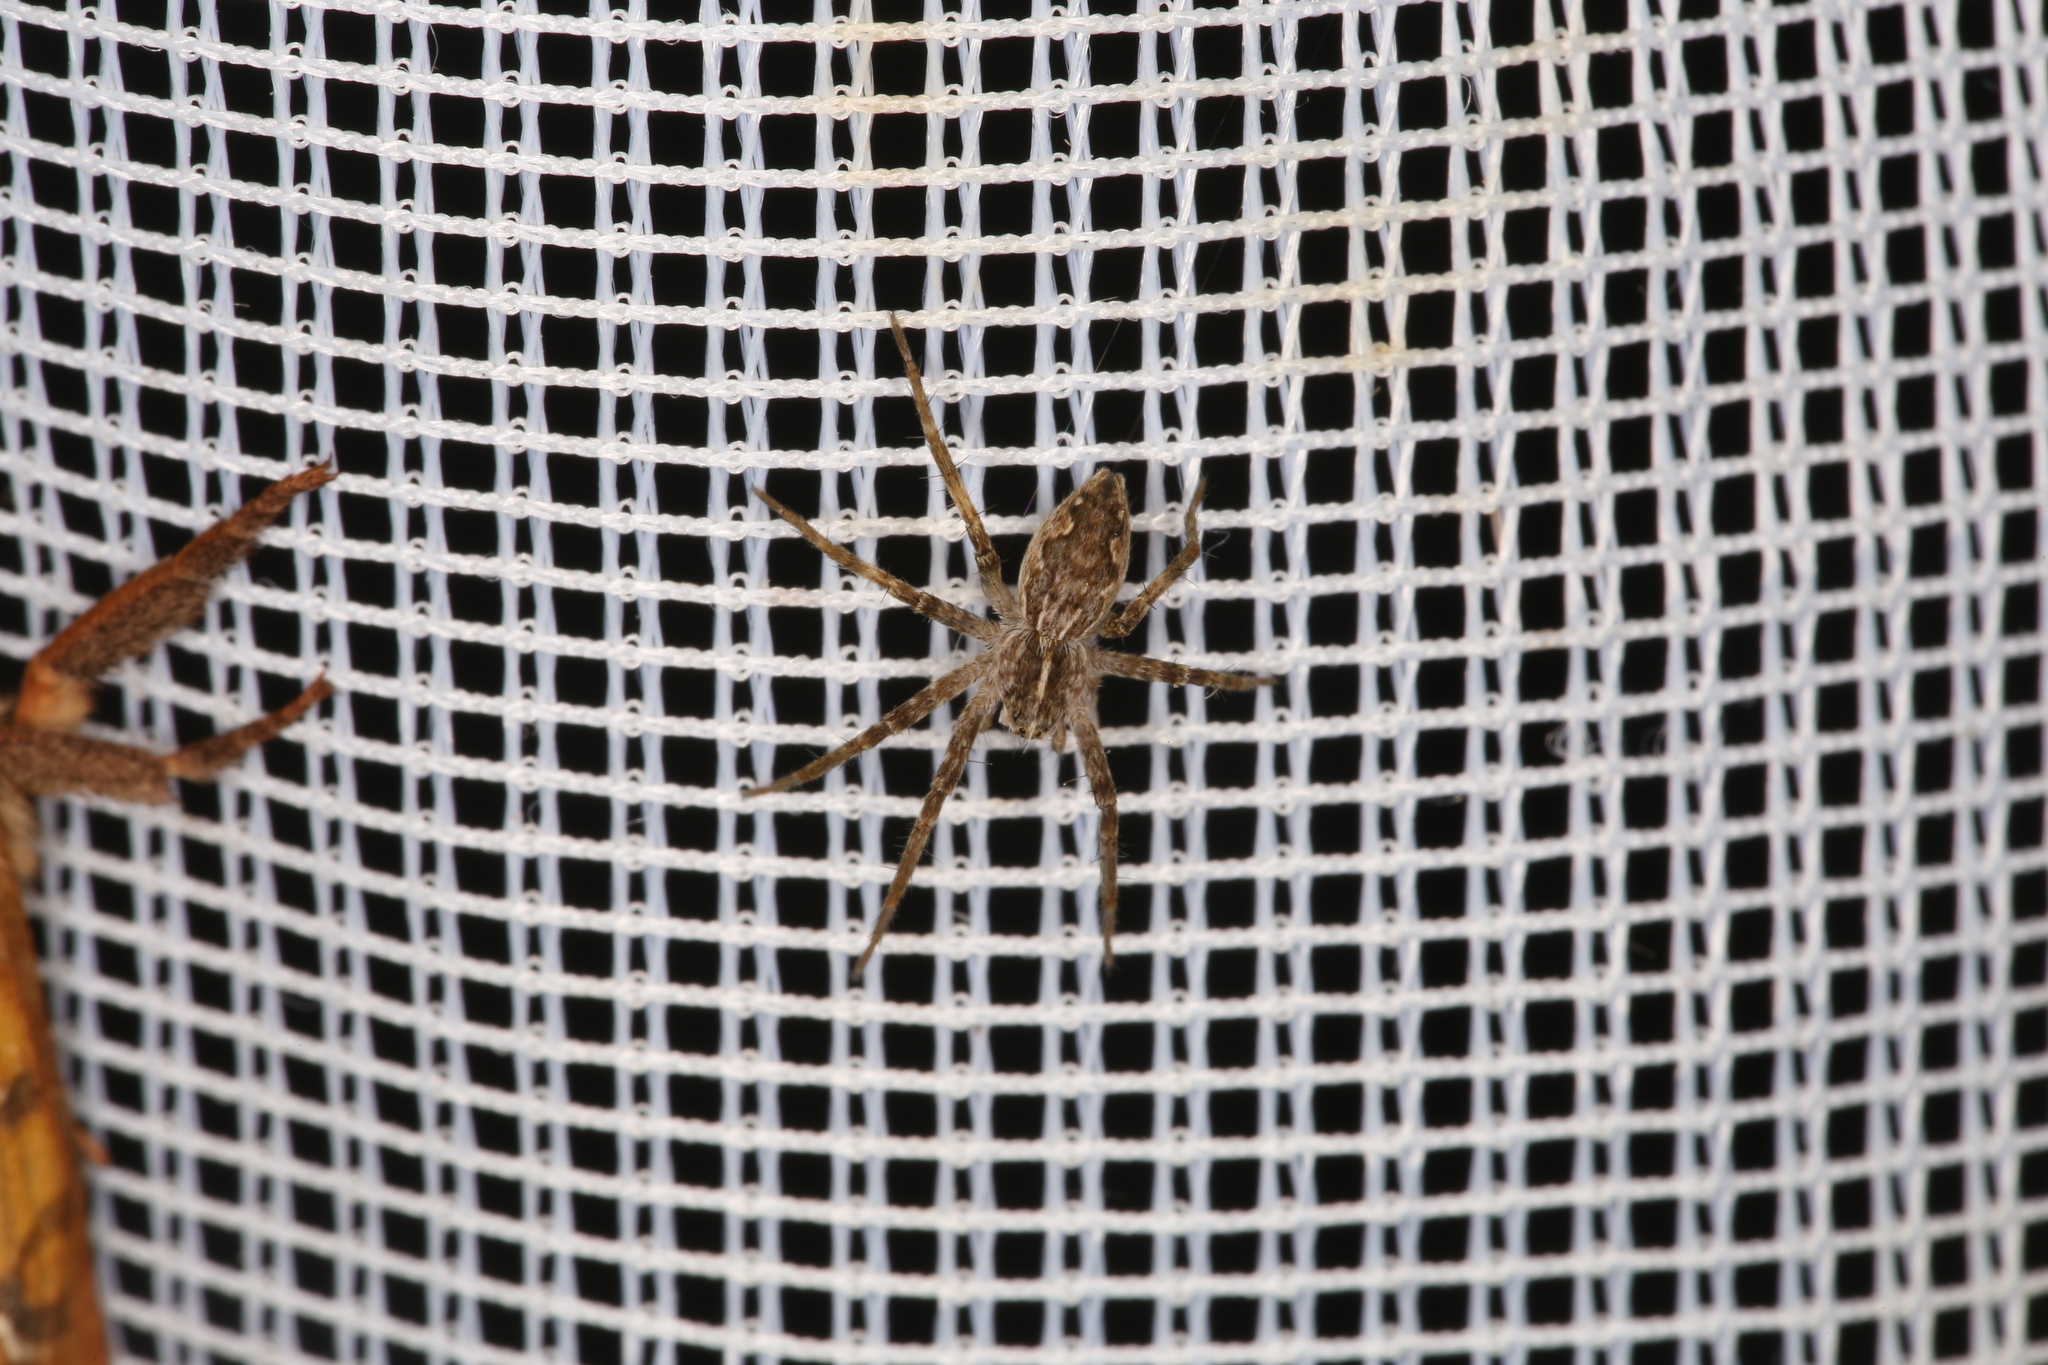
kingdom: Animalia
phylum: Arthropoda
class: Arachnida
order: Araneae
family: Pisauridae
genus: Pisaura
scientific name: Pisaura mirabilis
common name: Tent spider
